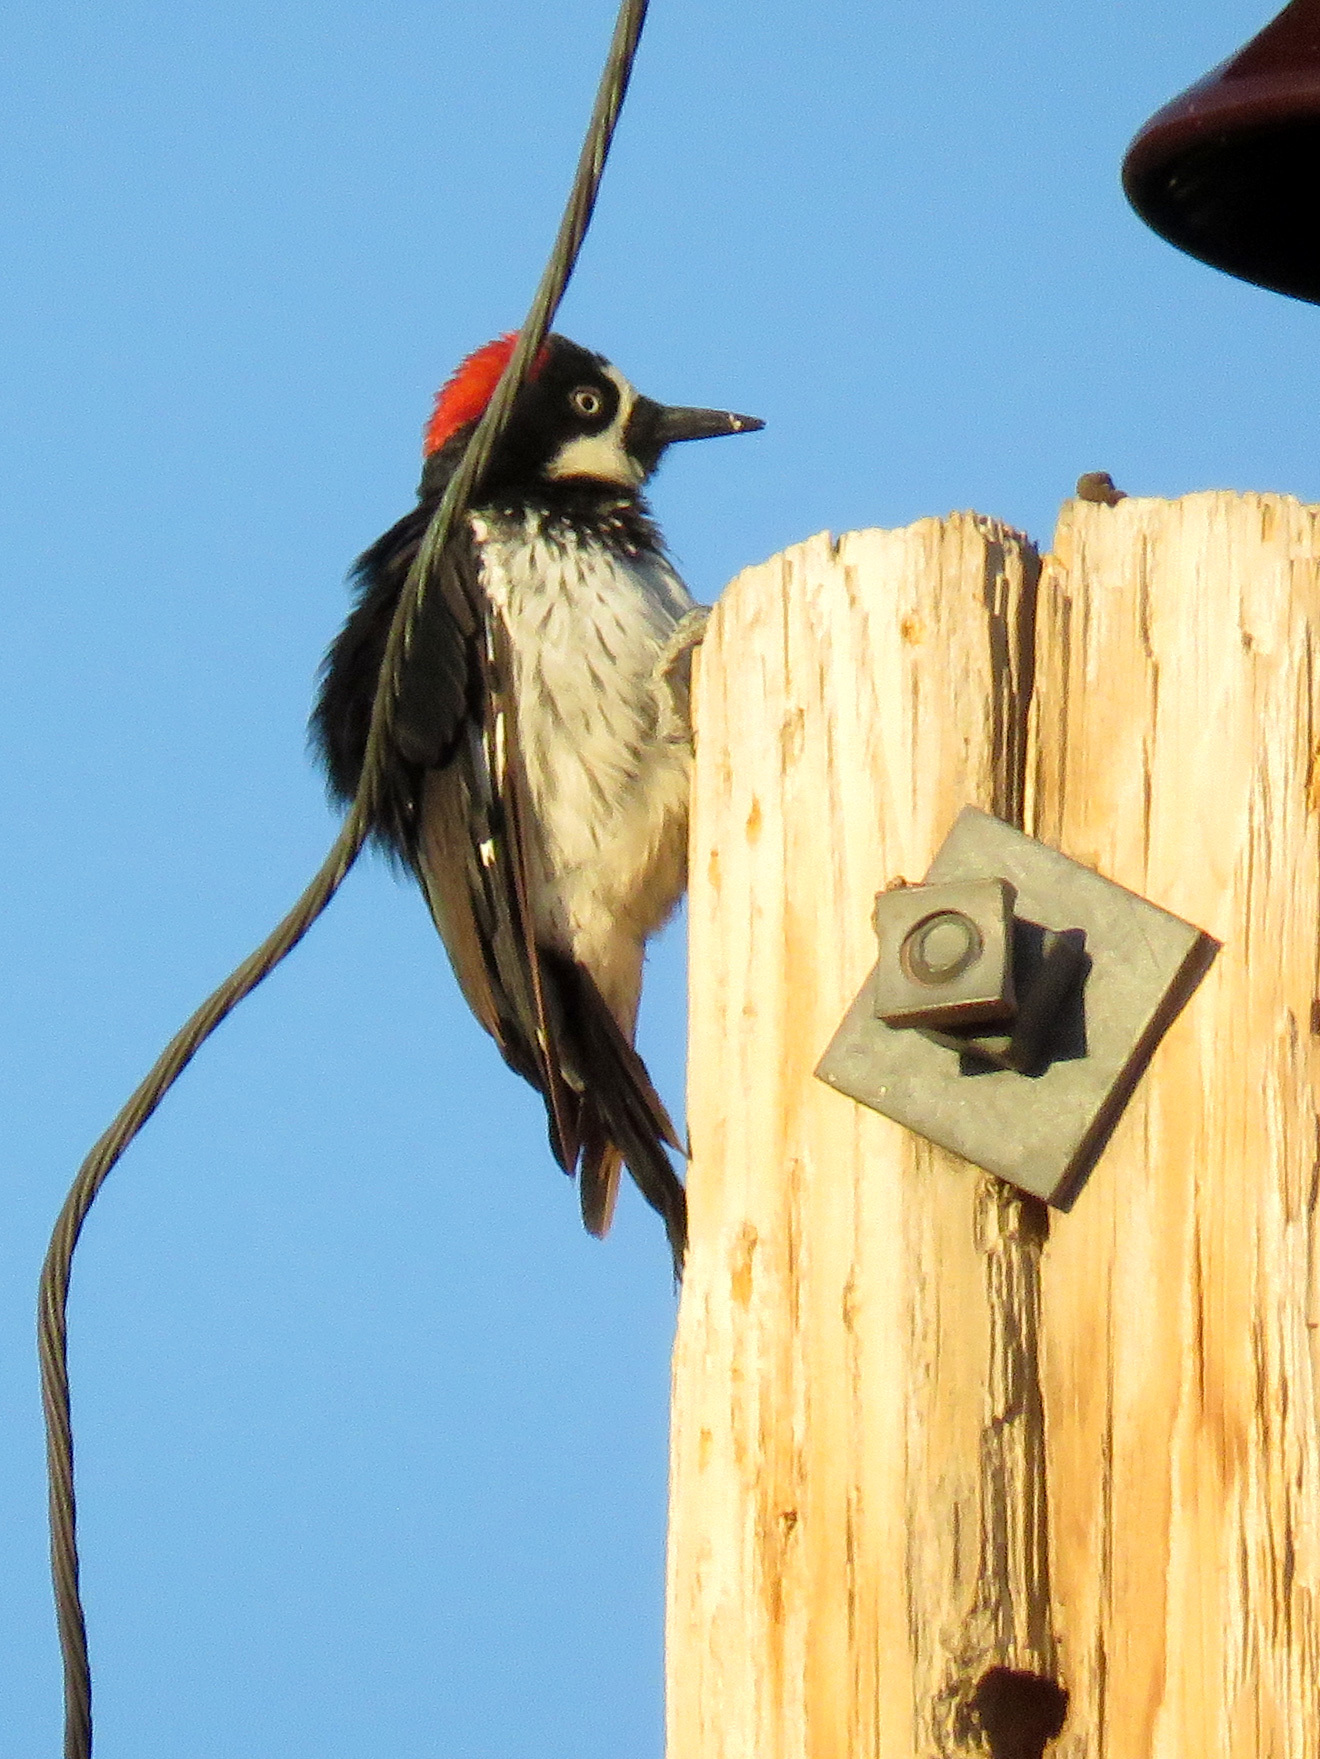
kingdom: Animalia
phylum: Chordata
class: Aves
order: Piciformes
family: Picidae
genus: Melanerpes
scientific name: Melanerpes formicivorus
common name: Acorn woodpecker
